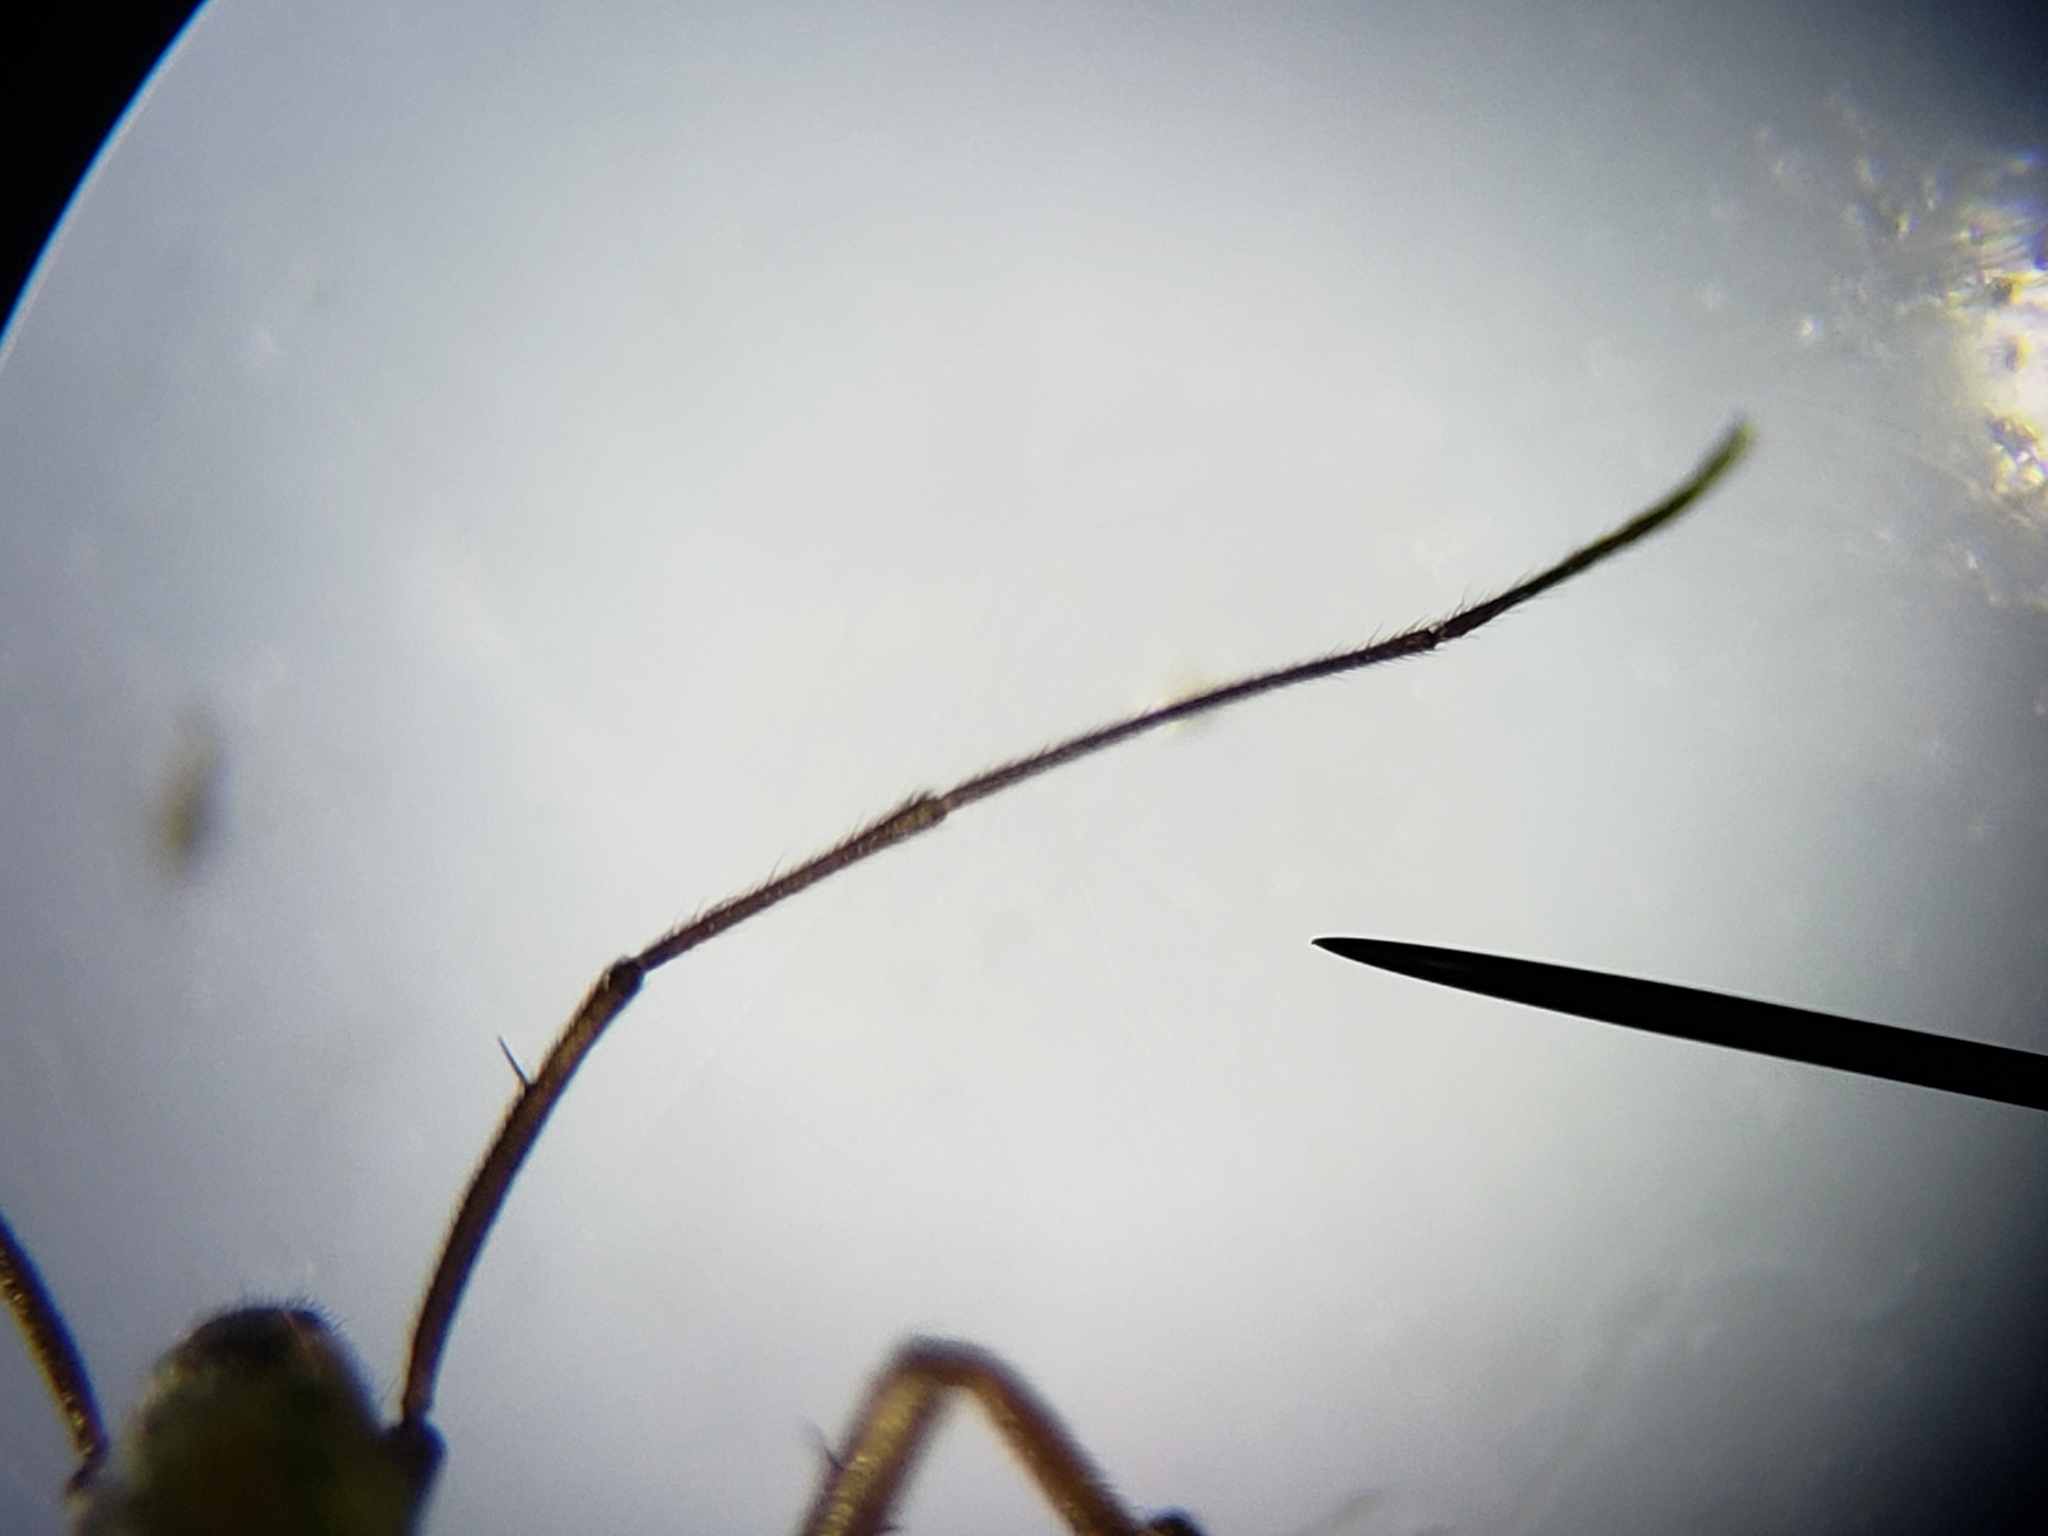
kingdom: Animalia
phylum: Arthropoda
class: Insecta
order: Hemiptera
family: Mesoveliidae
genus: Mesovelia
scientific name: Mesovelia mulsanti
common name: Water treaders
